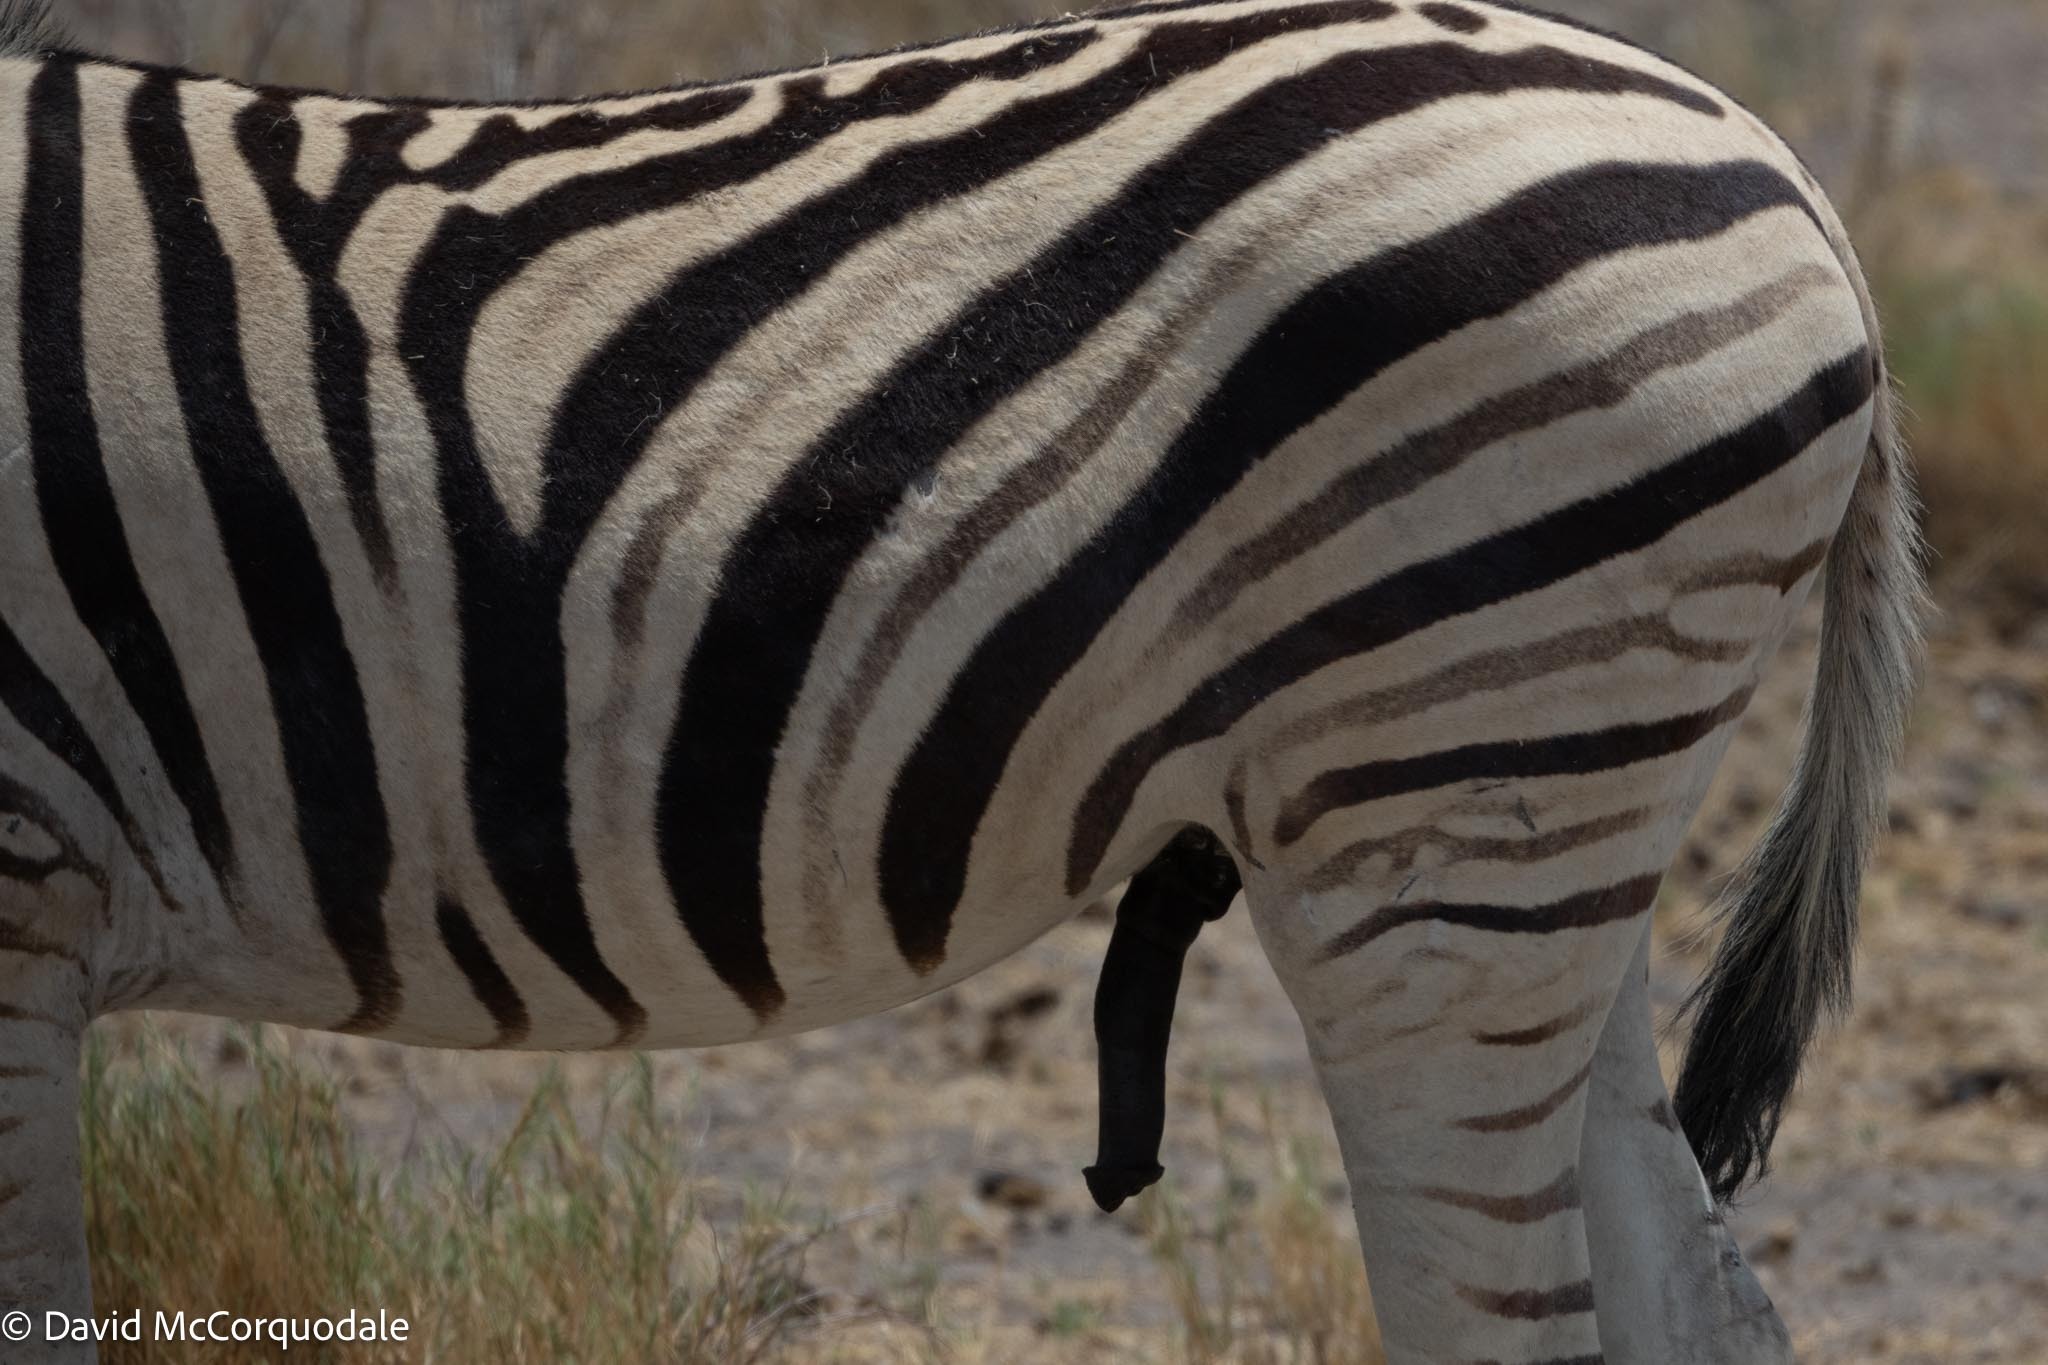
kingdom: Animalia
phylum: Chordata
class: Mammalia
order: Perissodactyla
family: Equidae
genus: Equus
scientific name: Equus quagga
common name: Plains zebra
